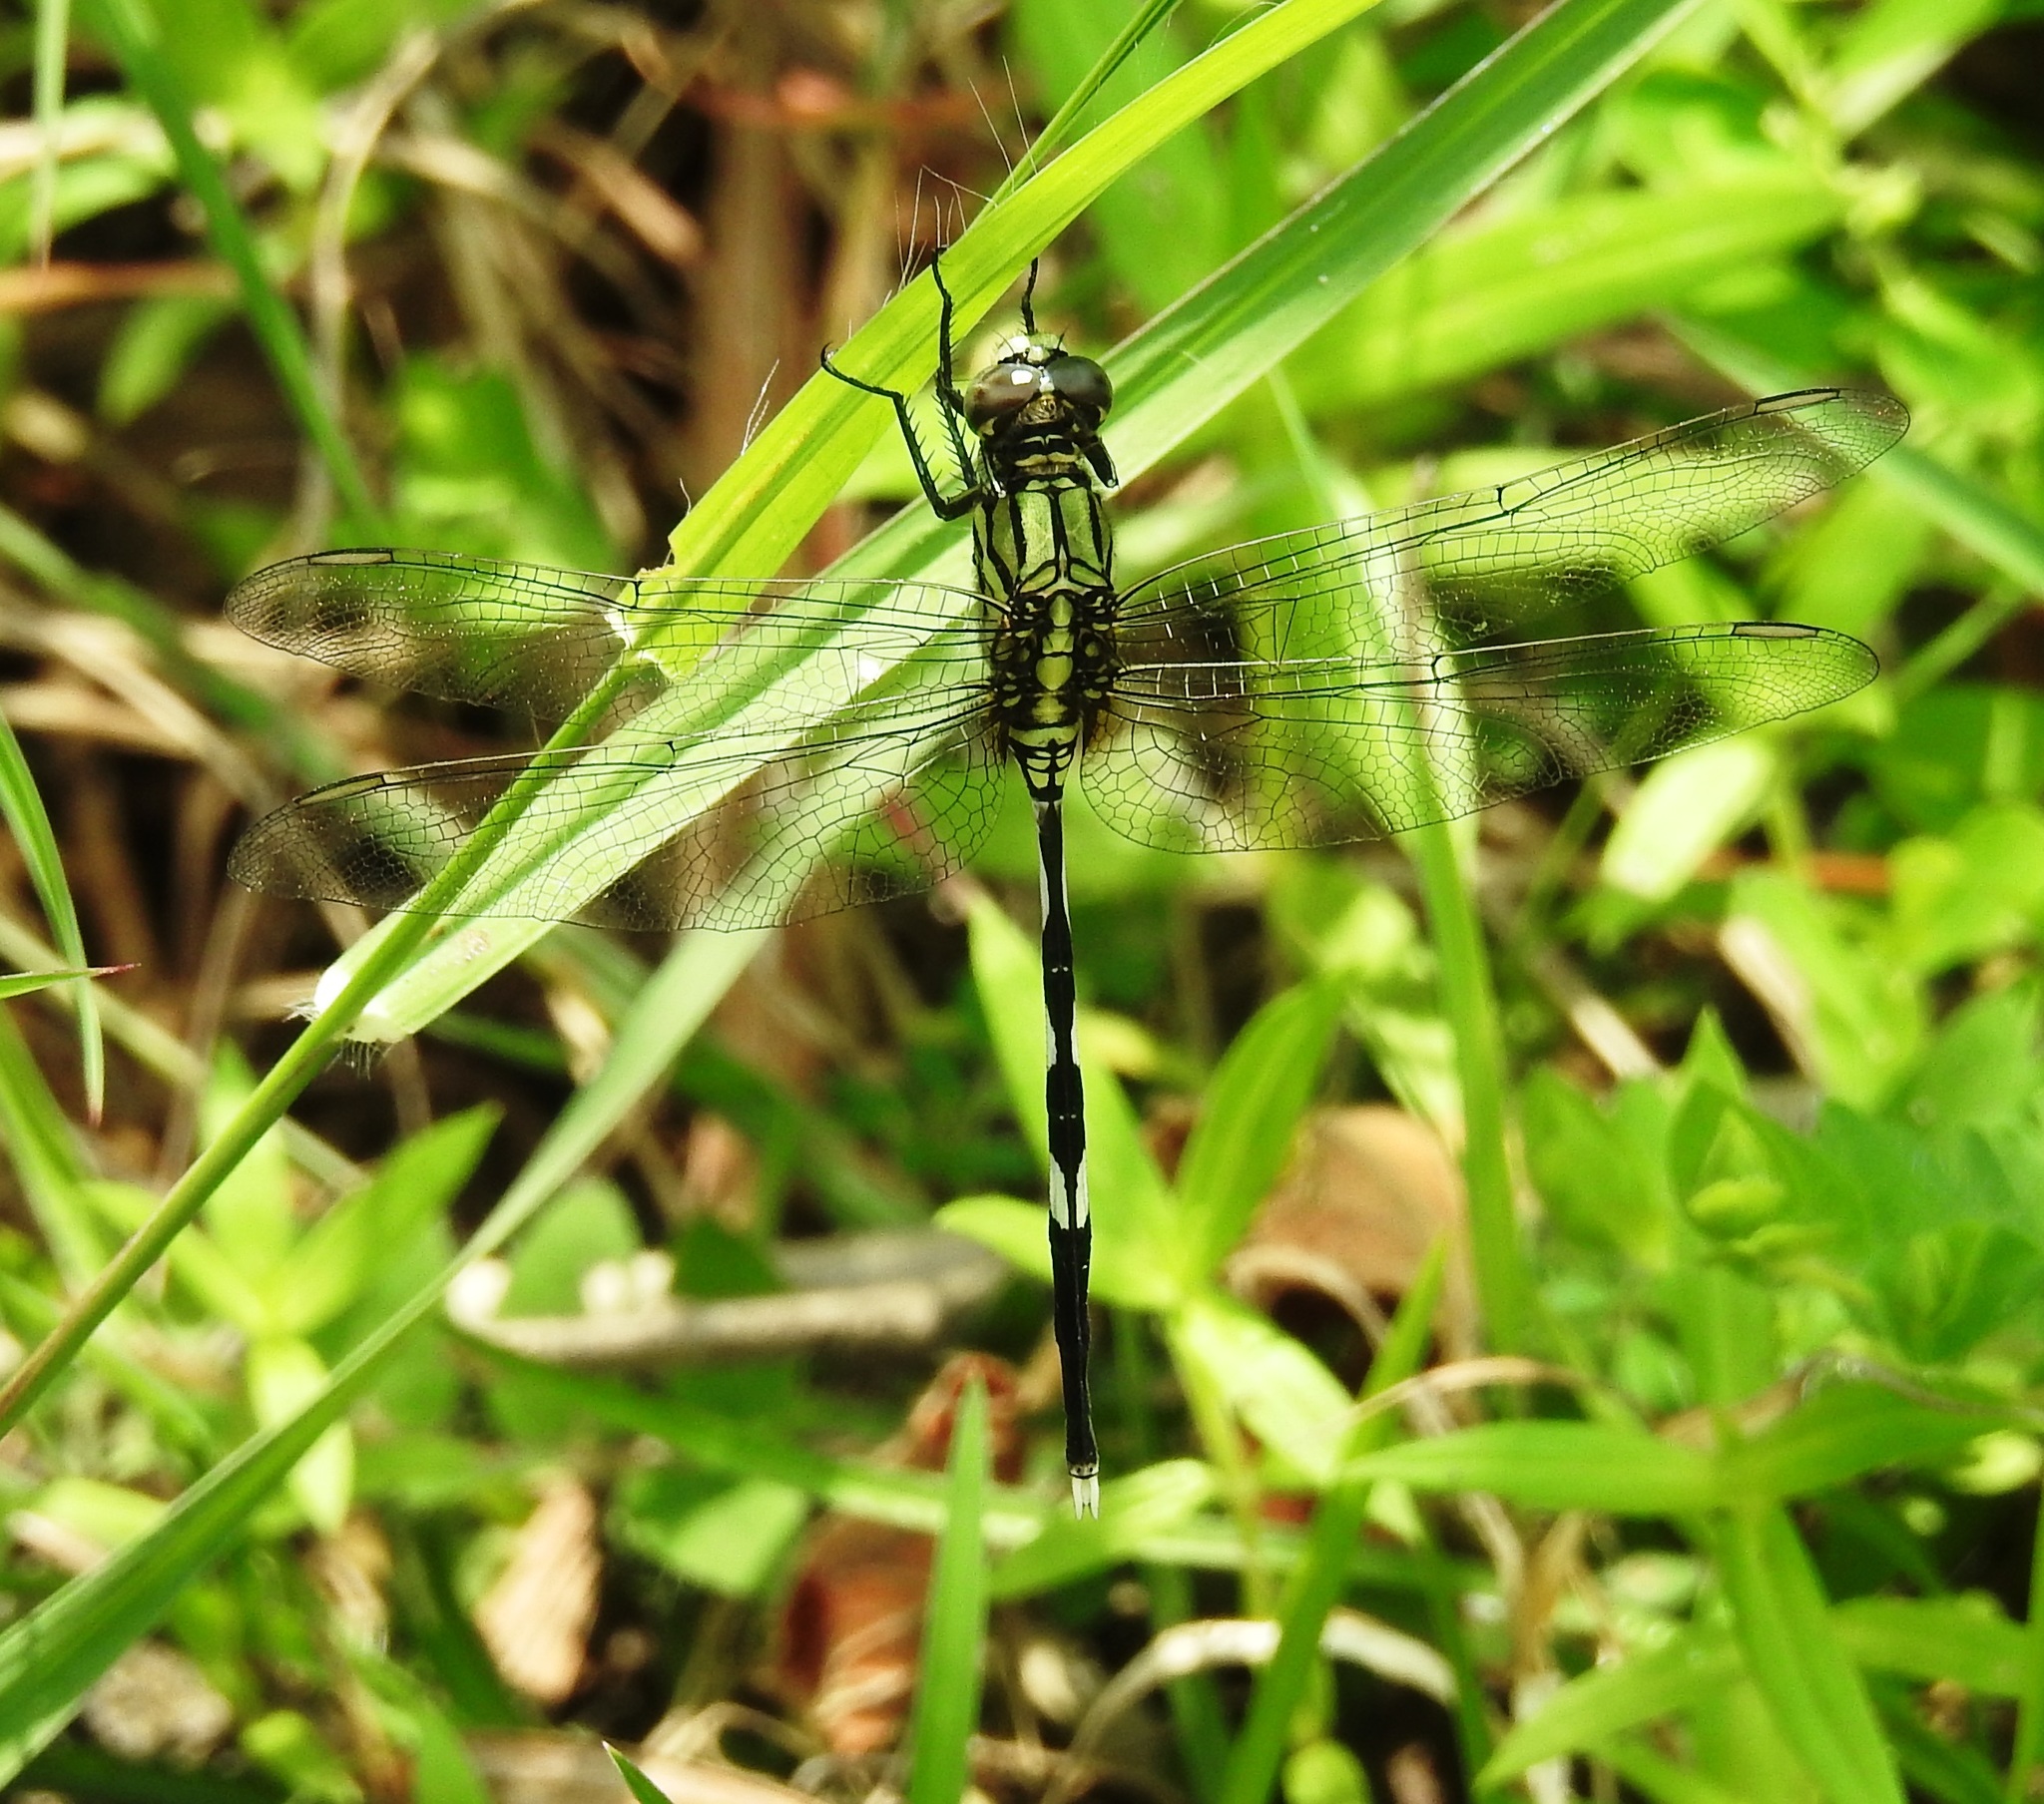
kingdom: Animalia
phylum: Arthropoda
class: Insecta
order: Odonata
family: Libellulidae
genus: Orthetrum
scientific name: Orthetrum sabina
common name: Slender skimmer
